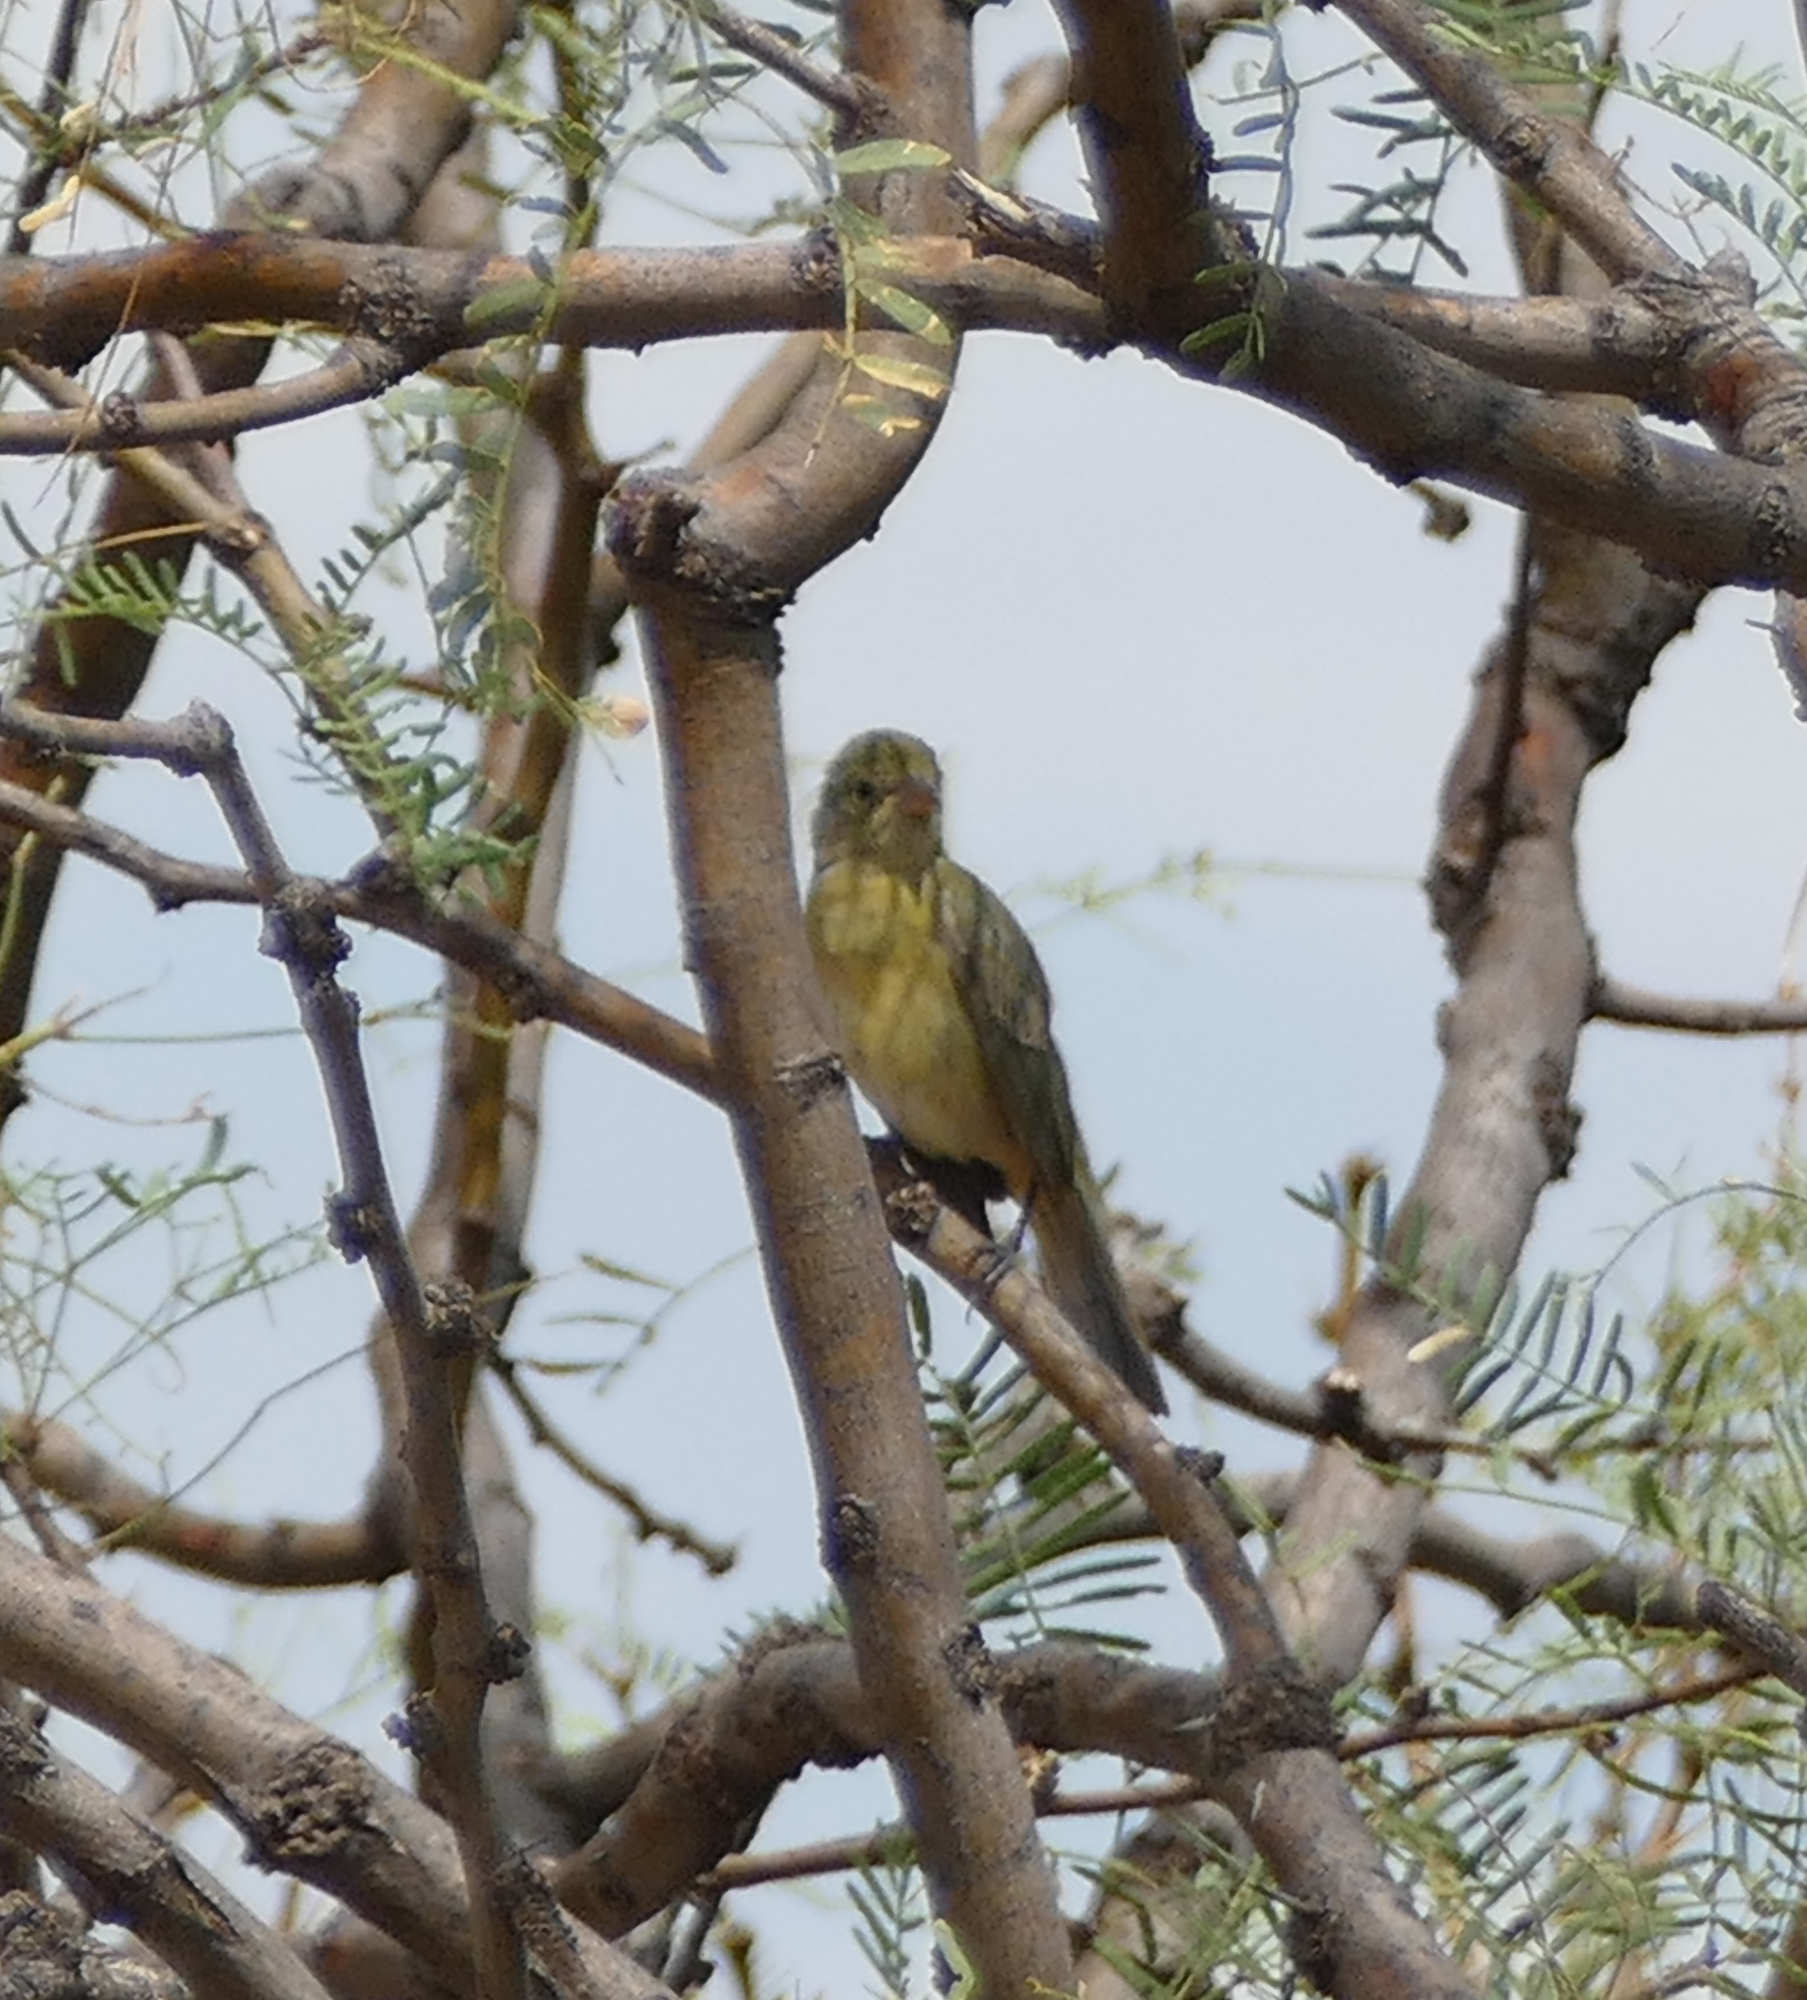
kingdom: Animalia
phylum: Chordata
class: Aves
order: Passeriformes
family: Cardinalidae
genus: Passerina
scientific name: Passerina ciris
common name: Painted bunting
